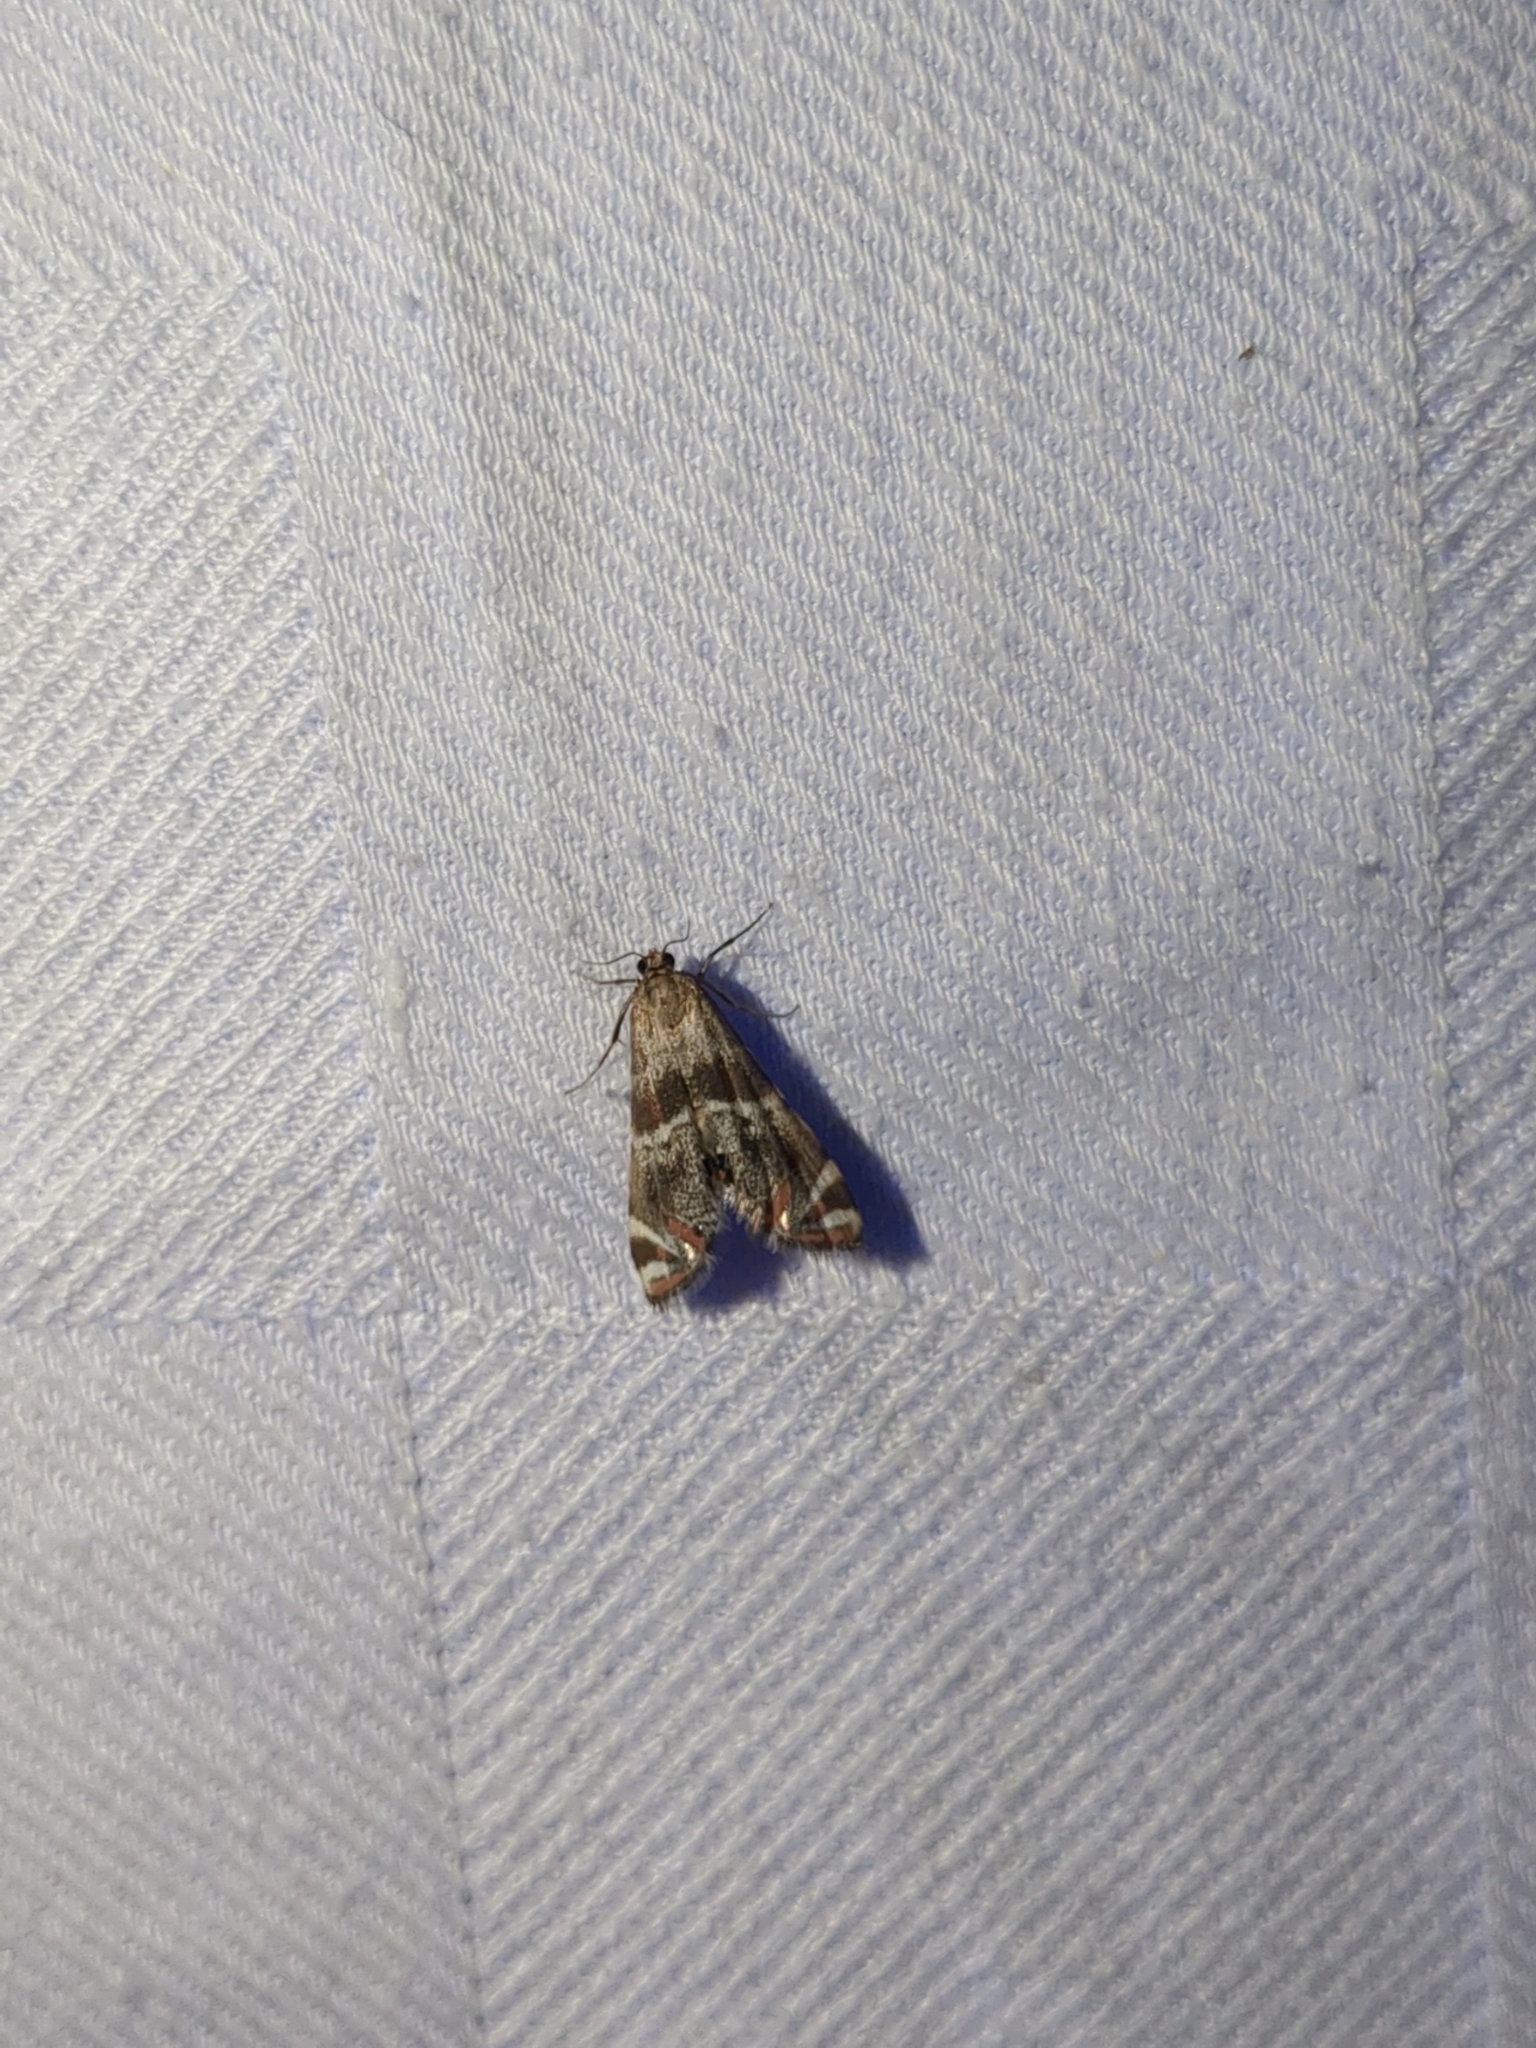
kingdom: Animalia
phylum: Arthropoda
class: Insecta
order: Lepidoptera
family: Crambidae
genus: Petrophila
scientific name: Petrophila jaliscalis
